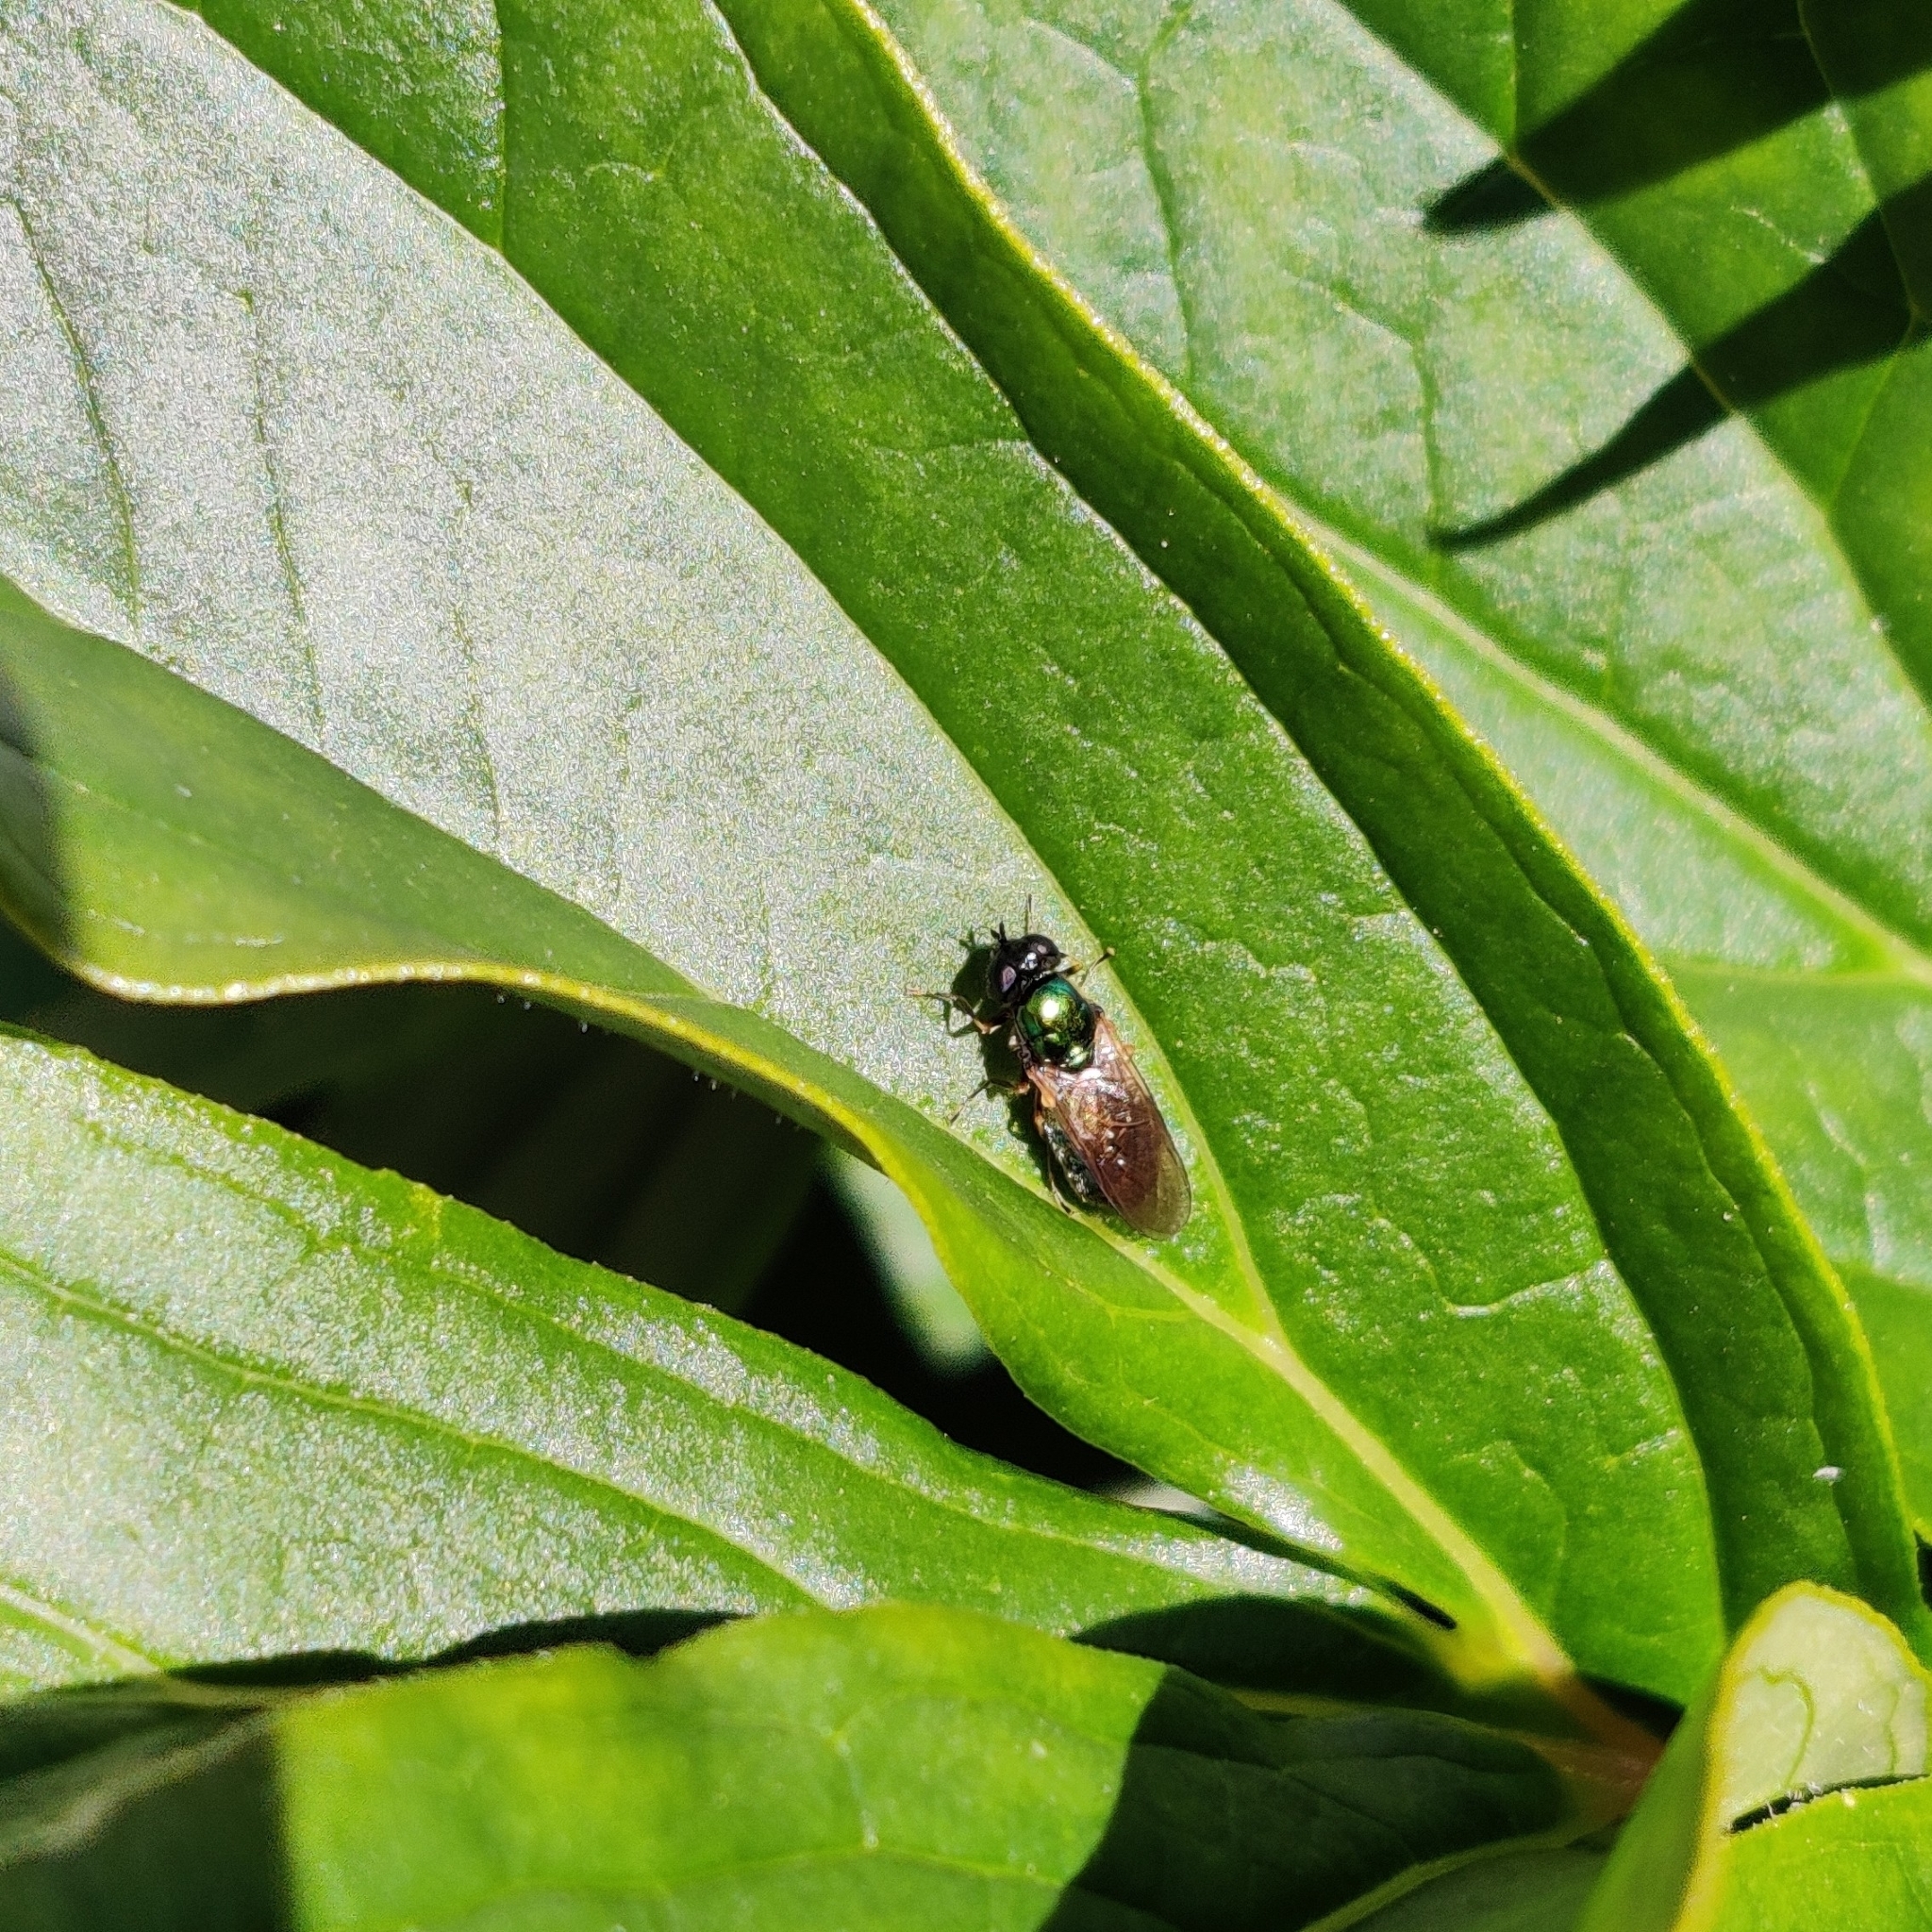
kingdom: Animalia
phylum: Arthropoda
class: Insecta
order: Diptera
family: Stratiomyidae
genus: Chloromyia
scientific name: Chloromyia formosa
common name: Soldier fly
